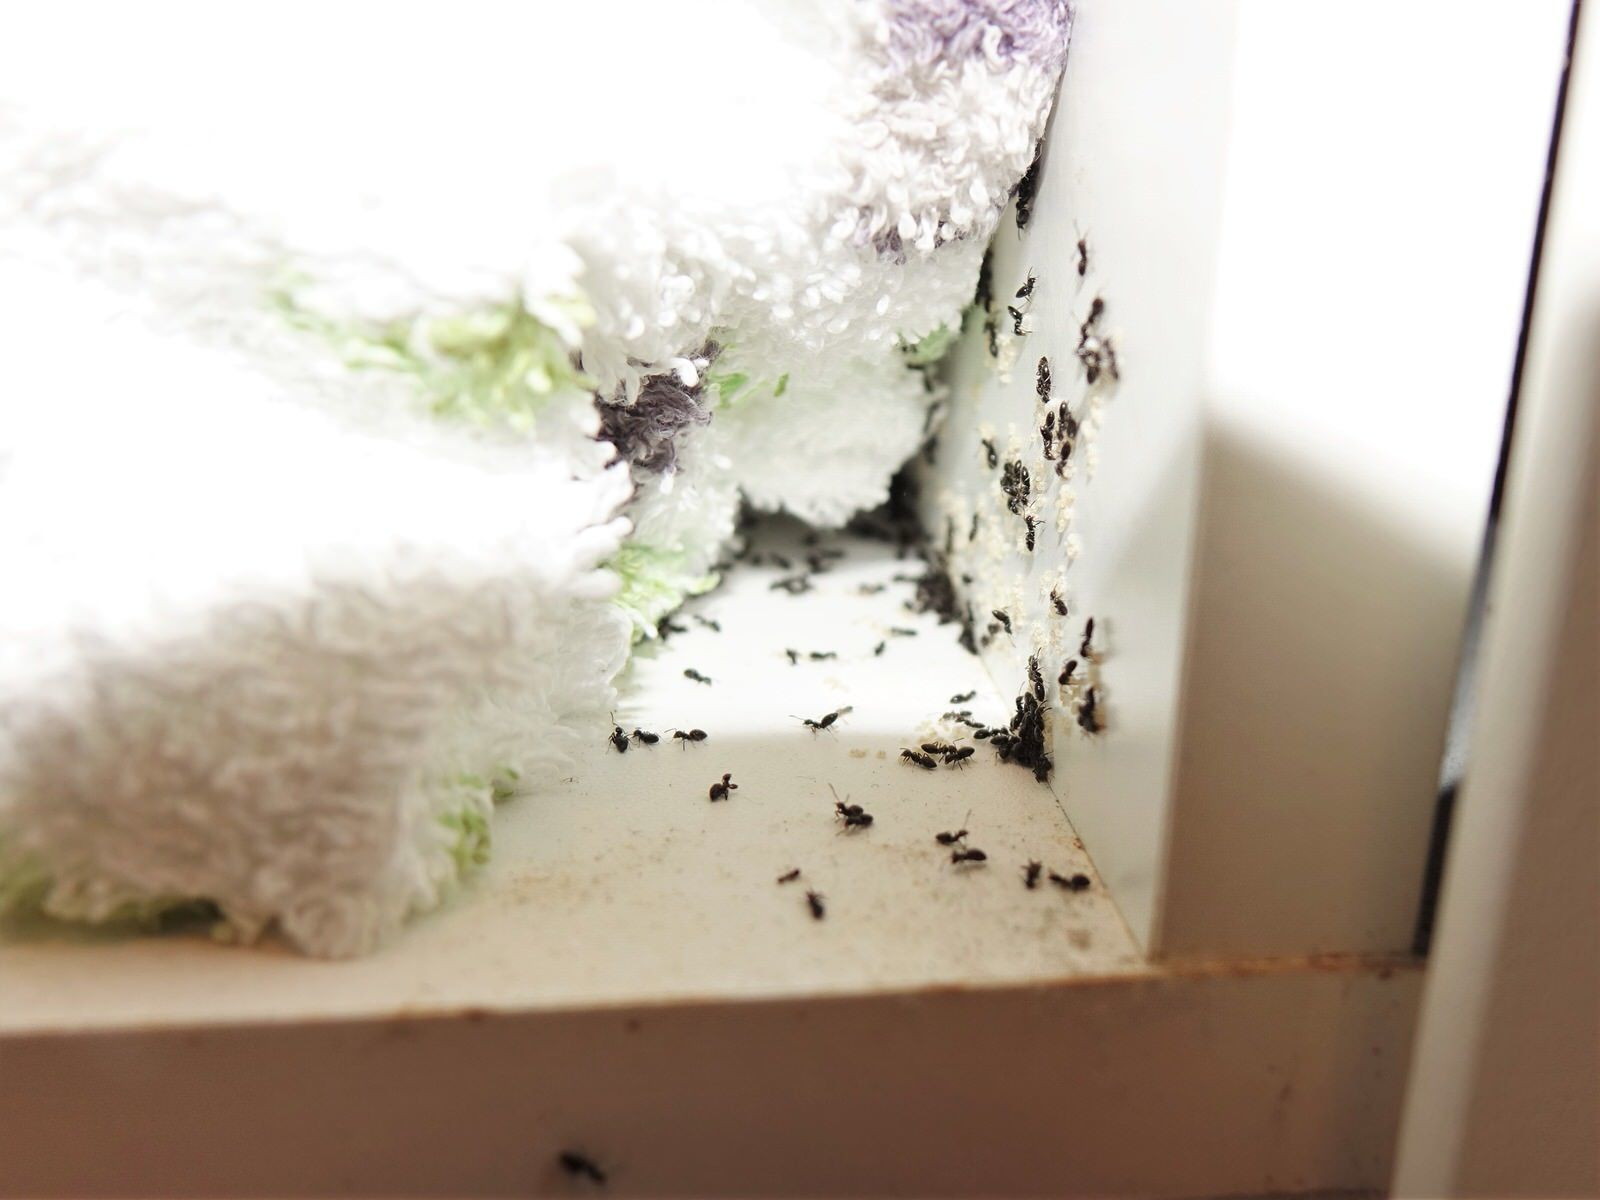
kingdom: Animalia
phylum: Arthropoda
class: Insecta
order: Hymenoptera
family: Formicidae
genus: Technomyrmex
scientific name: Technomyrmex jocosus
